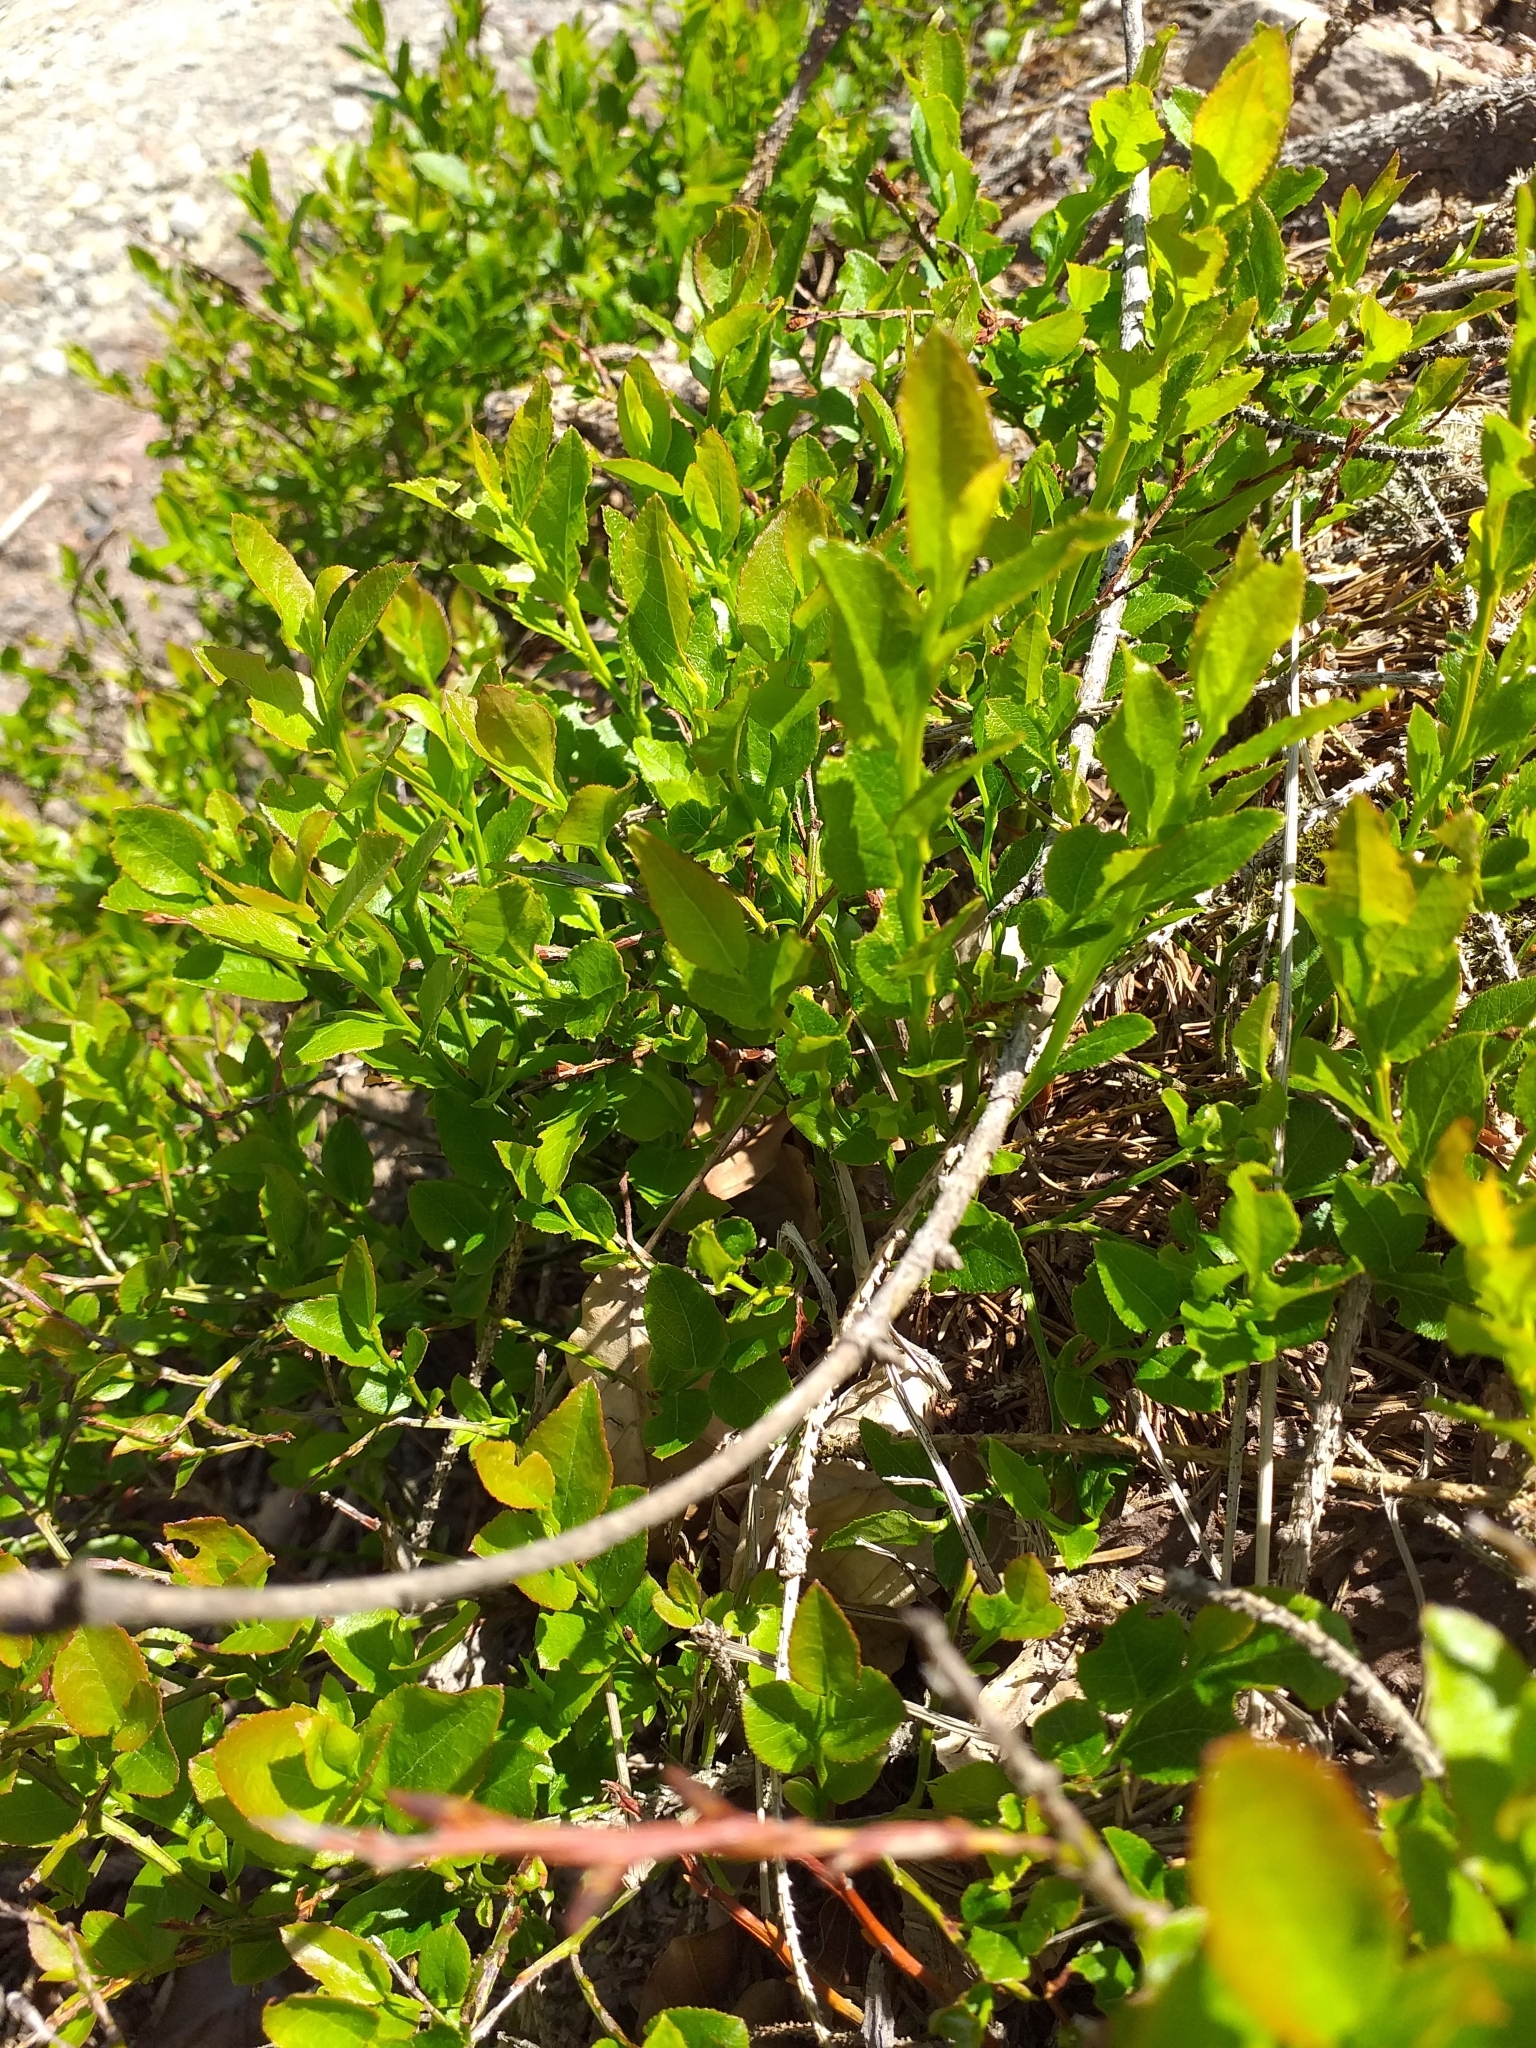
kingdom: Plantae
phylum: Tracheophyta
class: Magnoliopsida
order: Ericales
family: Ericaceae
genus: Vaccinium
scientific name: Vaccinium myrtillus
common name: Bilberry
